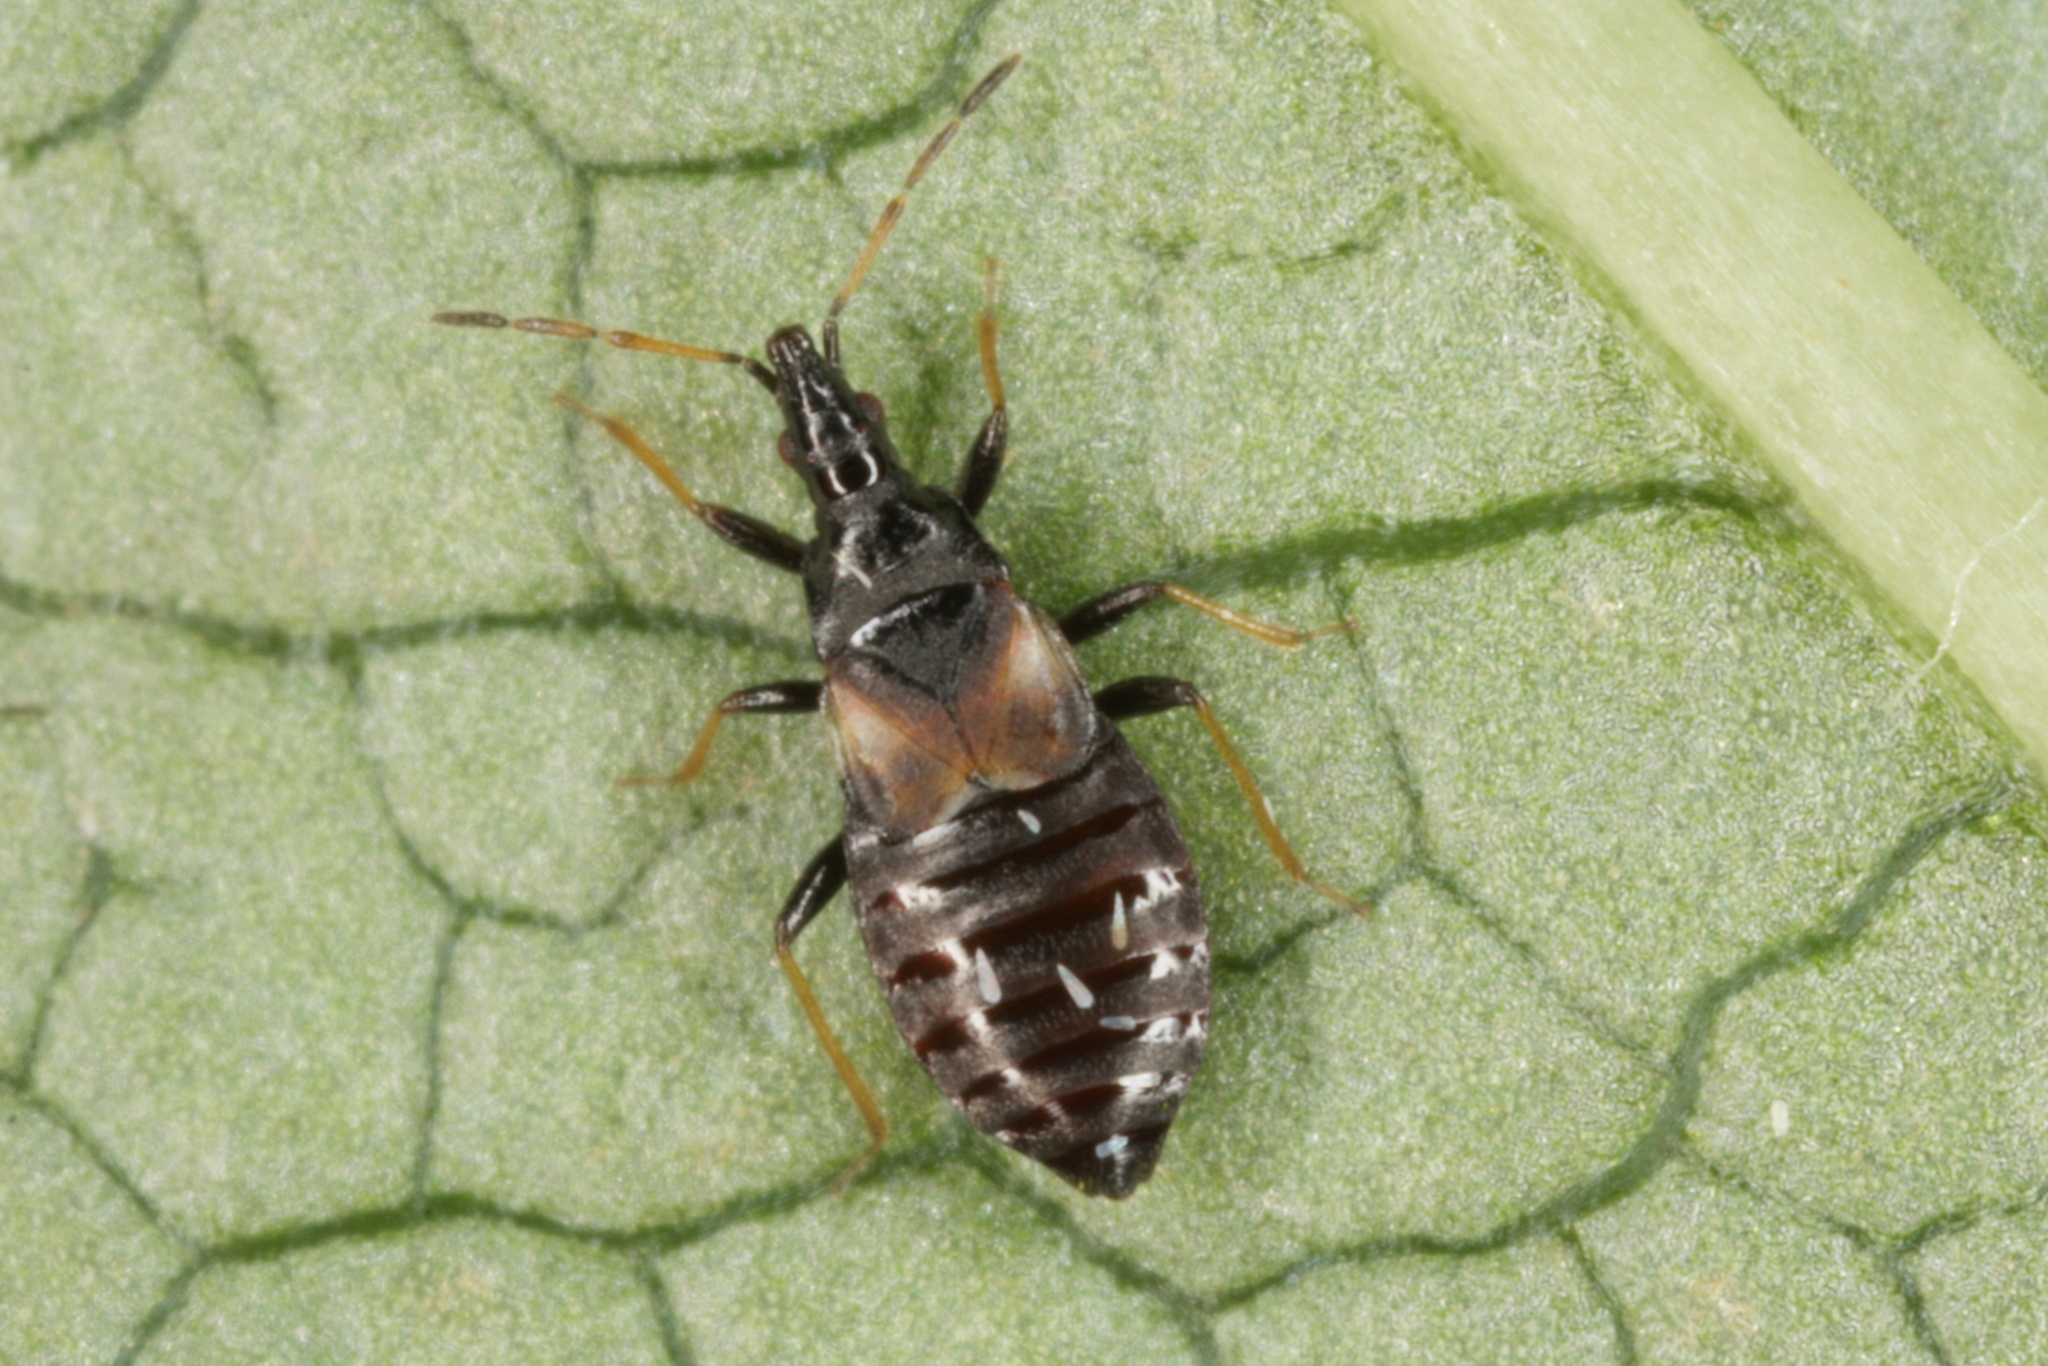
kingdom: Animalia
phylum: Arthropoda
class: Insecta
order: Hemiptera
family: Anthocoridae
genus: Temnostethus
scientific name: Temnostethus gracilis
